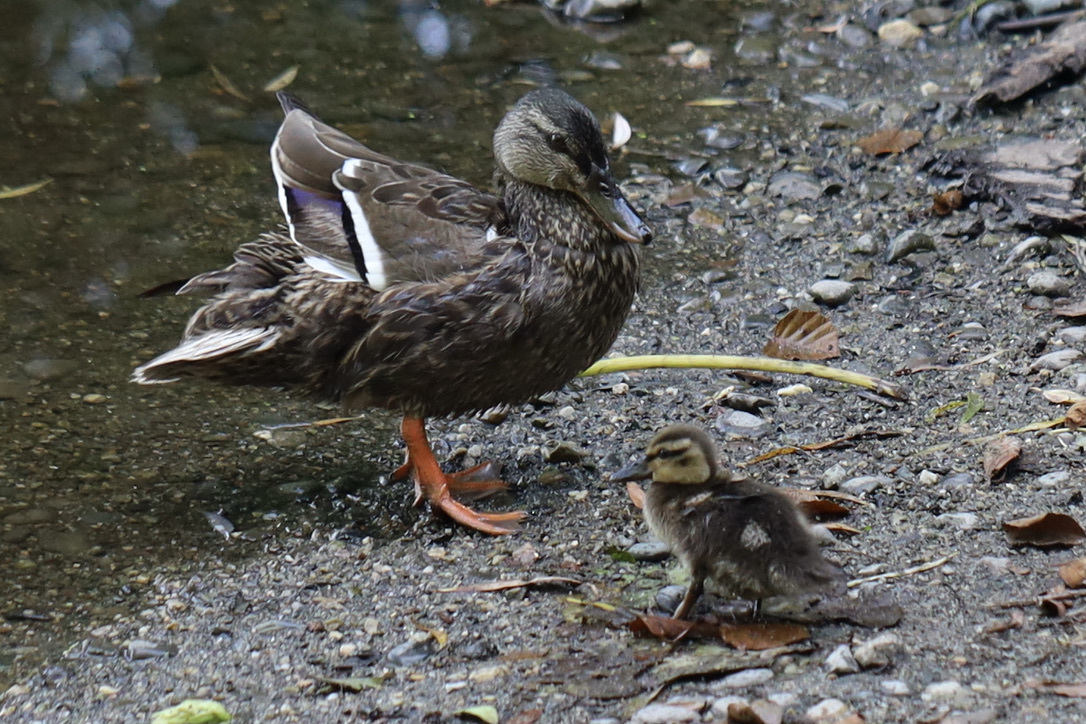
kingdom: Animalia
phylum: Chordata
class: Aves
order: Anseriformes
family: Anatidae
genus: Anas
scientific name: Anas platyrhynchos
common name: Mallard
